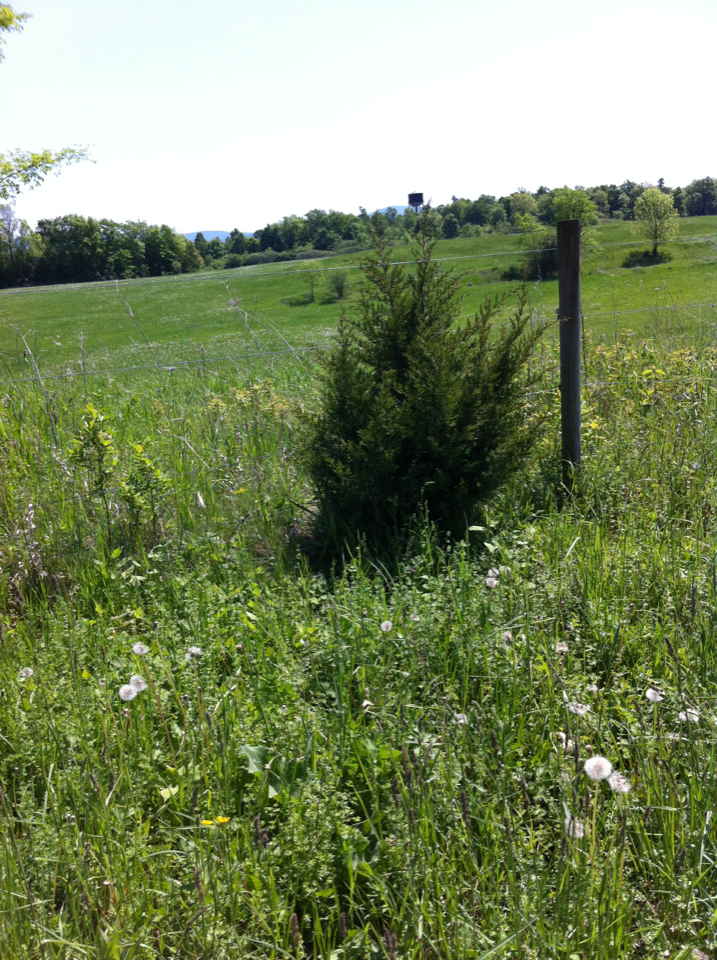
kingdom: Plantae
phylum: Tracheophyta
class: Pinopsida
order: Pinales
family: Cupressaceae
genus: Juniperus
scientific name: Juniperus virginiana
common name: Red juniper
